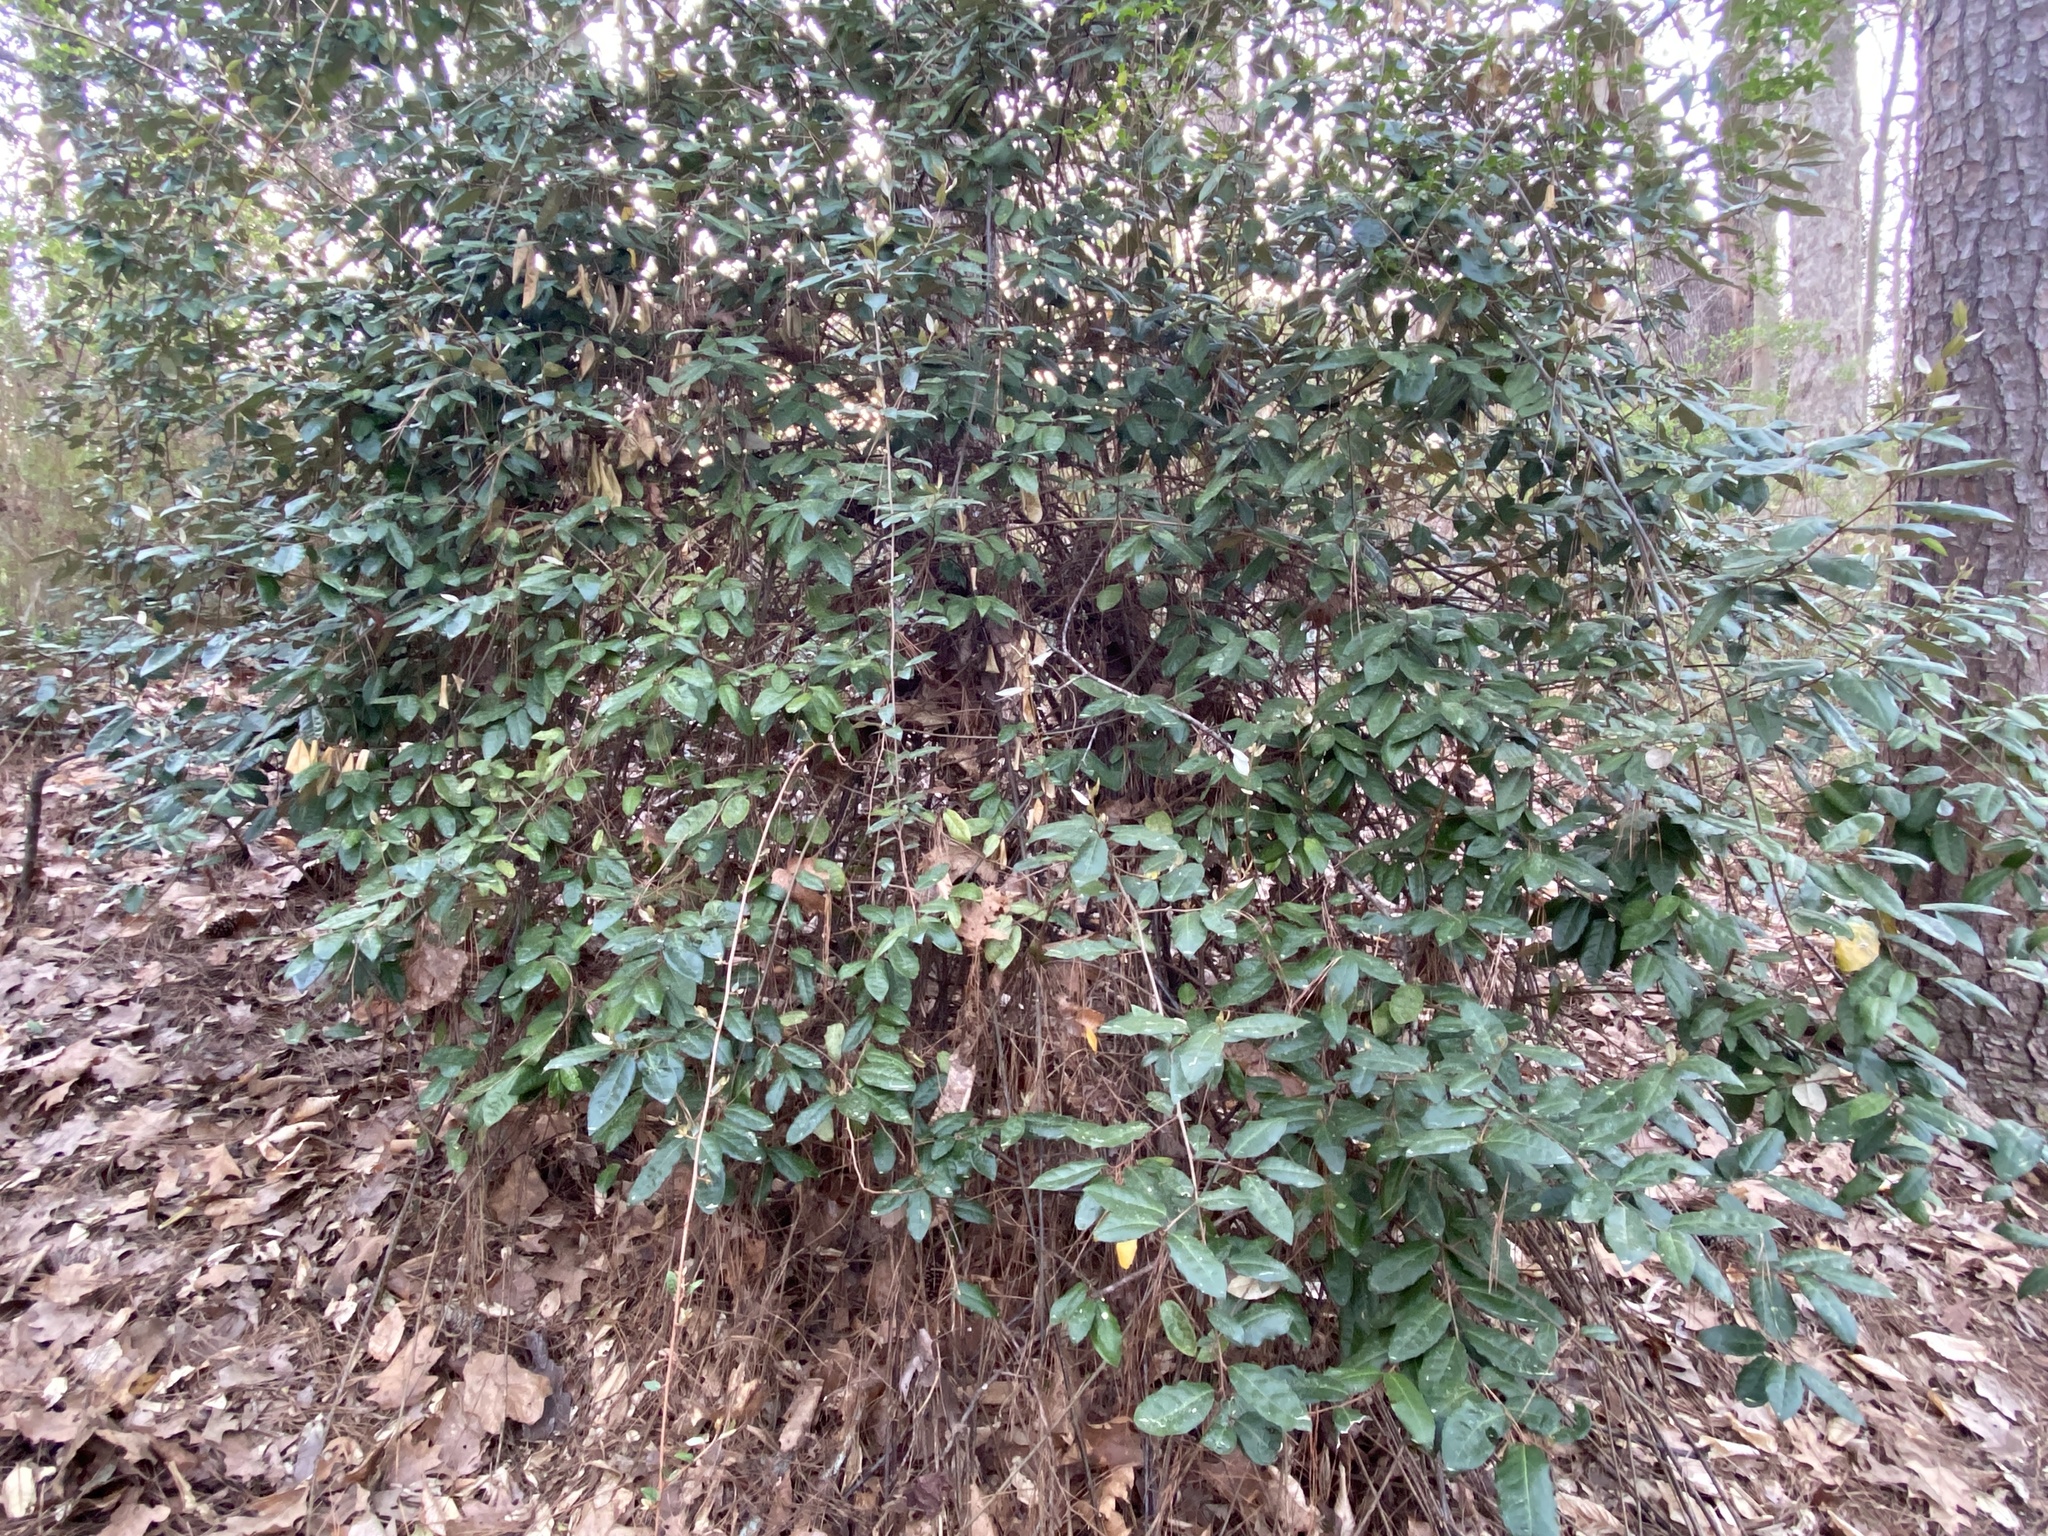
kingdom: Plantae
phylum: Tracheophyta
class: Magnoliopsida
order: Rosales
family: Elaeagnaceae
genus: Elaeagnus
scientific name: Elaeagnus pungens
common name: Spiny oleaster
